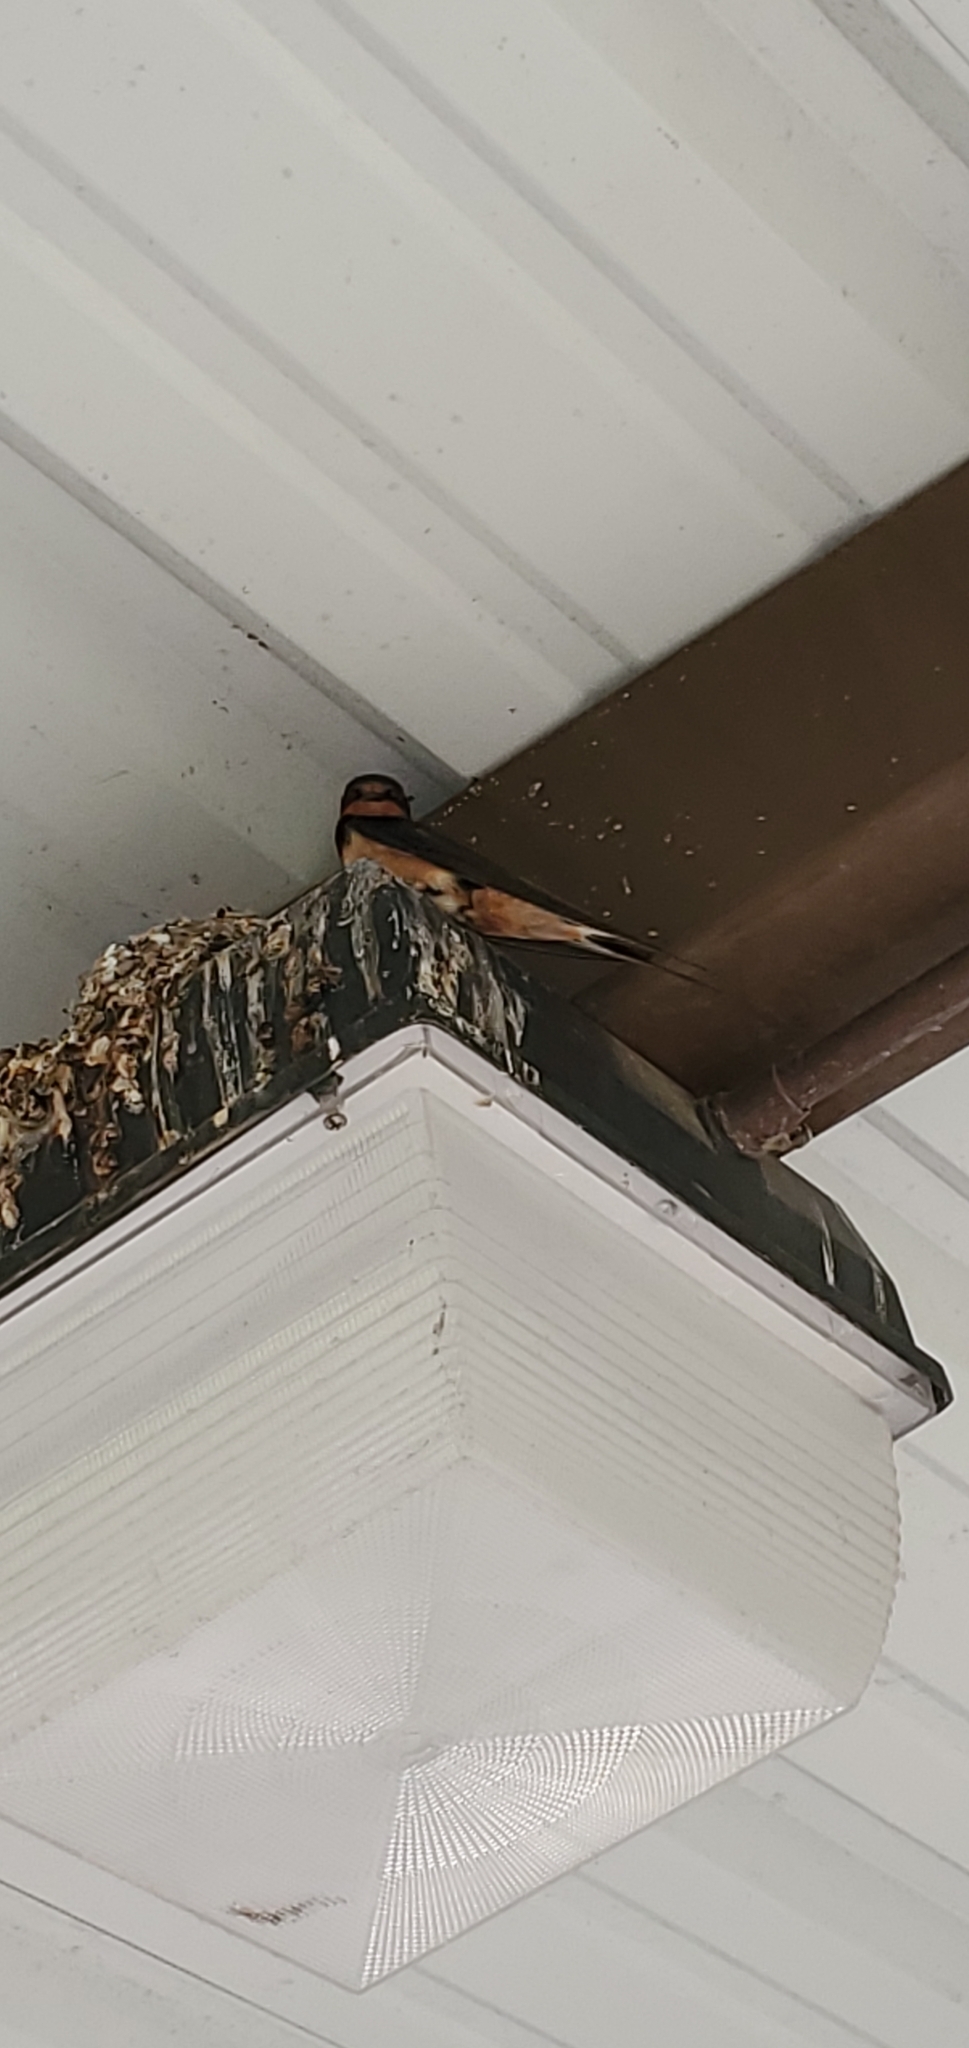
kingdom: Animalia
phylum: Chordata
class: Aves
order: Passeriformes
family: Hirundinidae
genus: Hirundo
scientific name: Hirundo rustica
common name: Barn swallow
